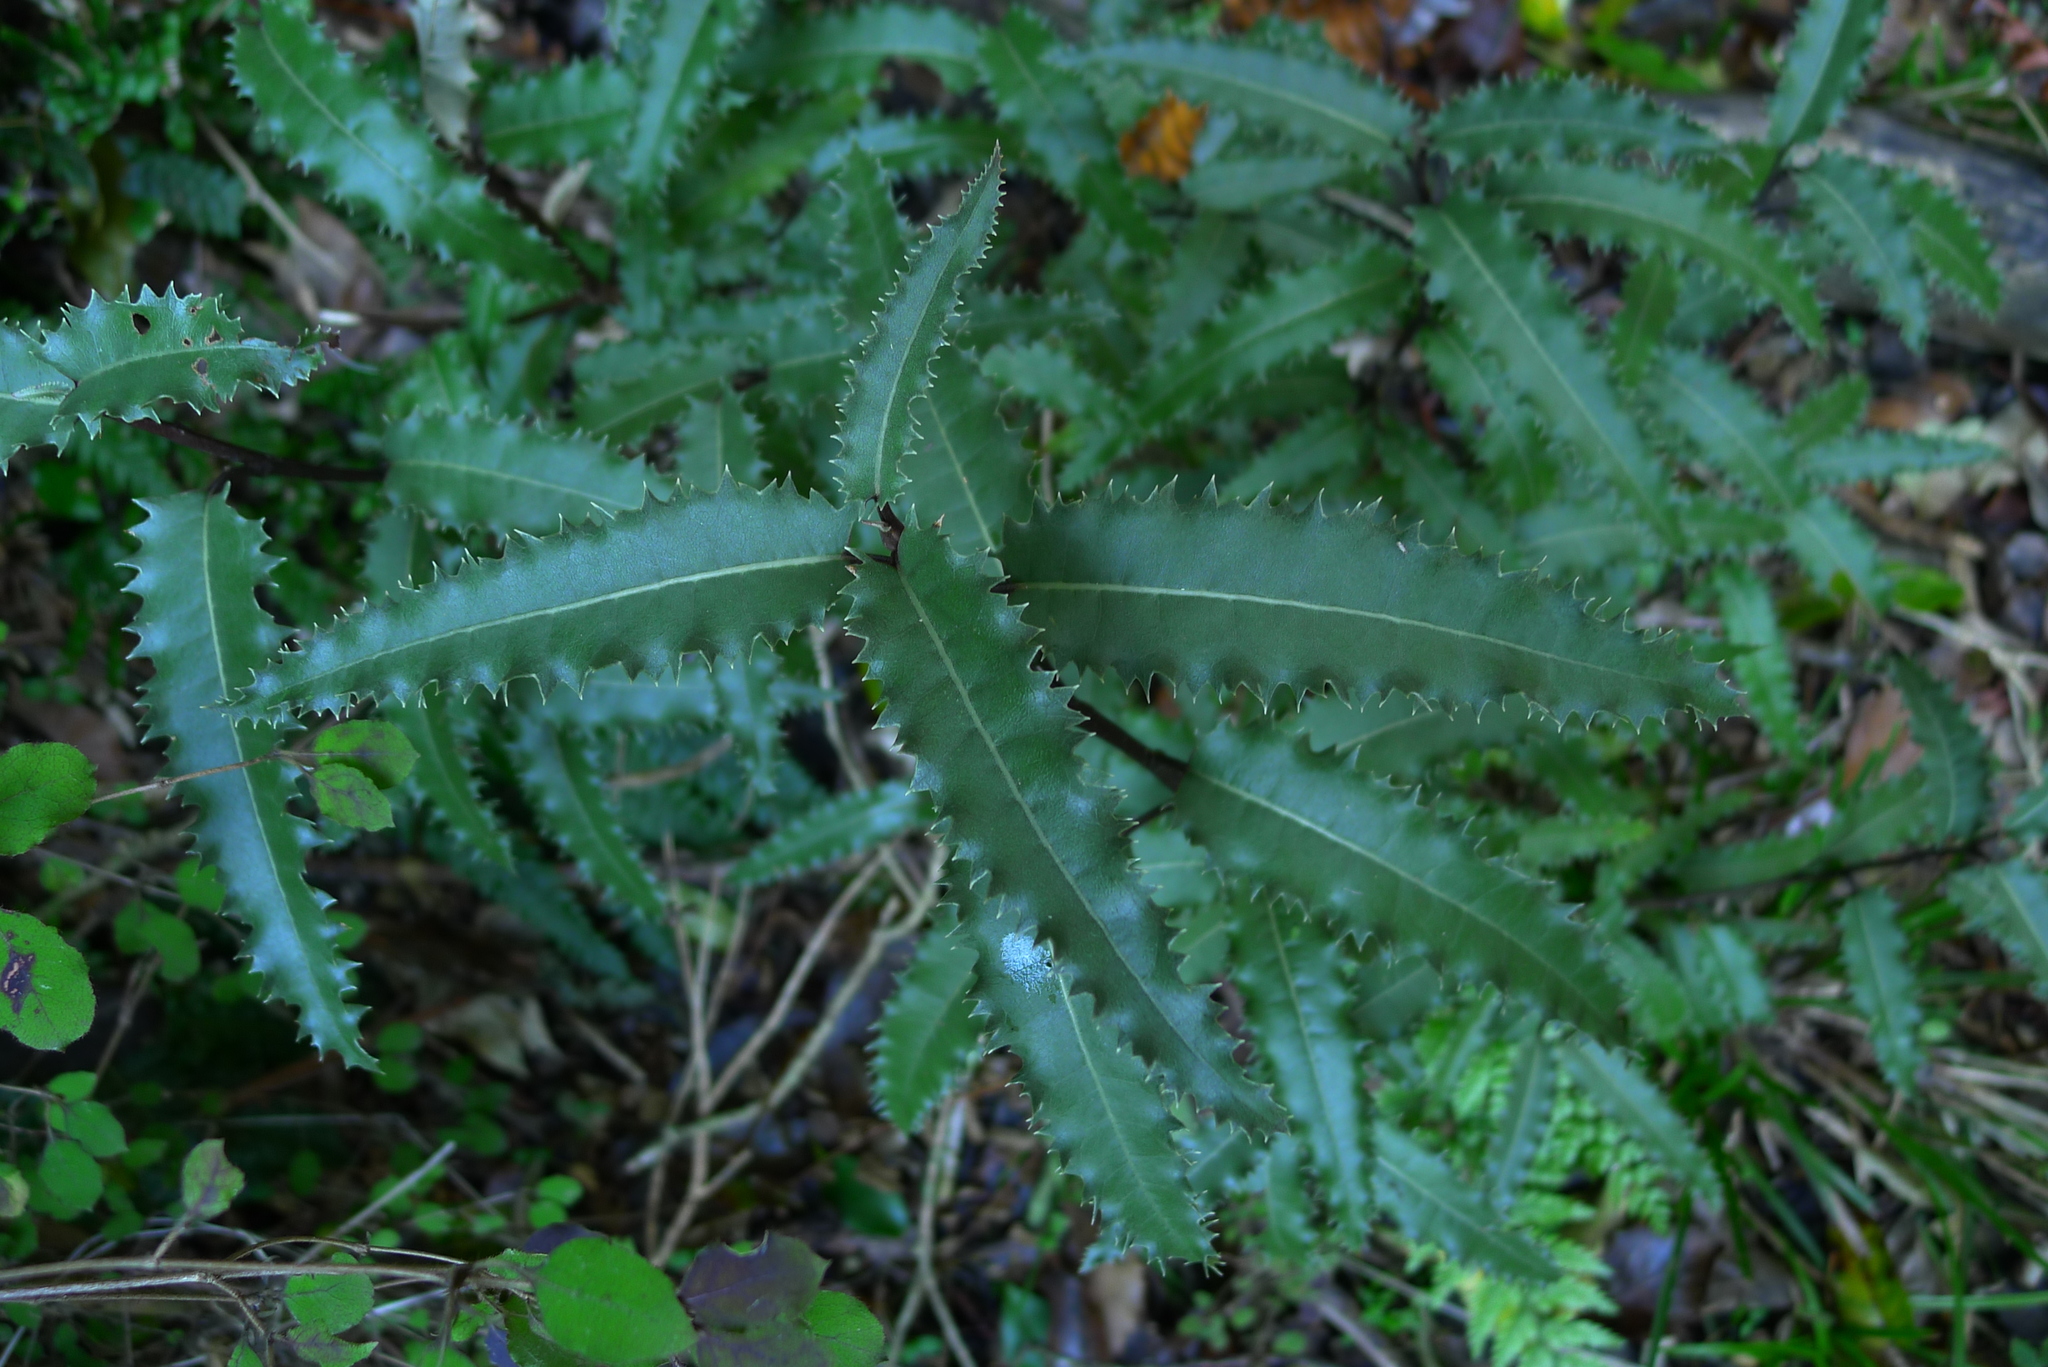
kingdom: Plantae
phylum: Tracheophyta
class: Magnoliopsida
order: Asterales
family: Asteraceae
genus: Olearia
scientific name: Olearia ilicifolia
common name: Maori-holly
